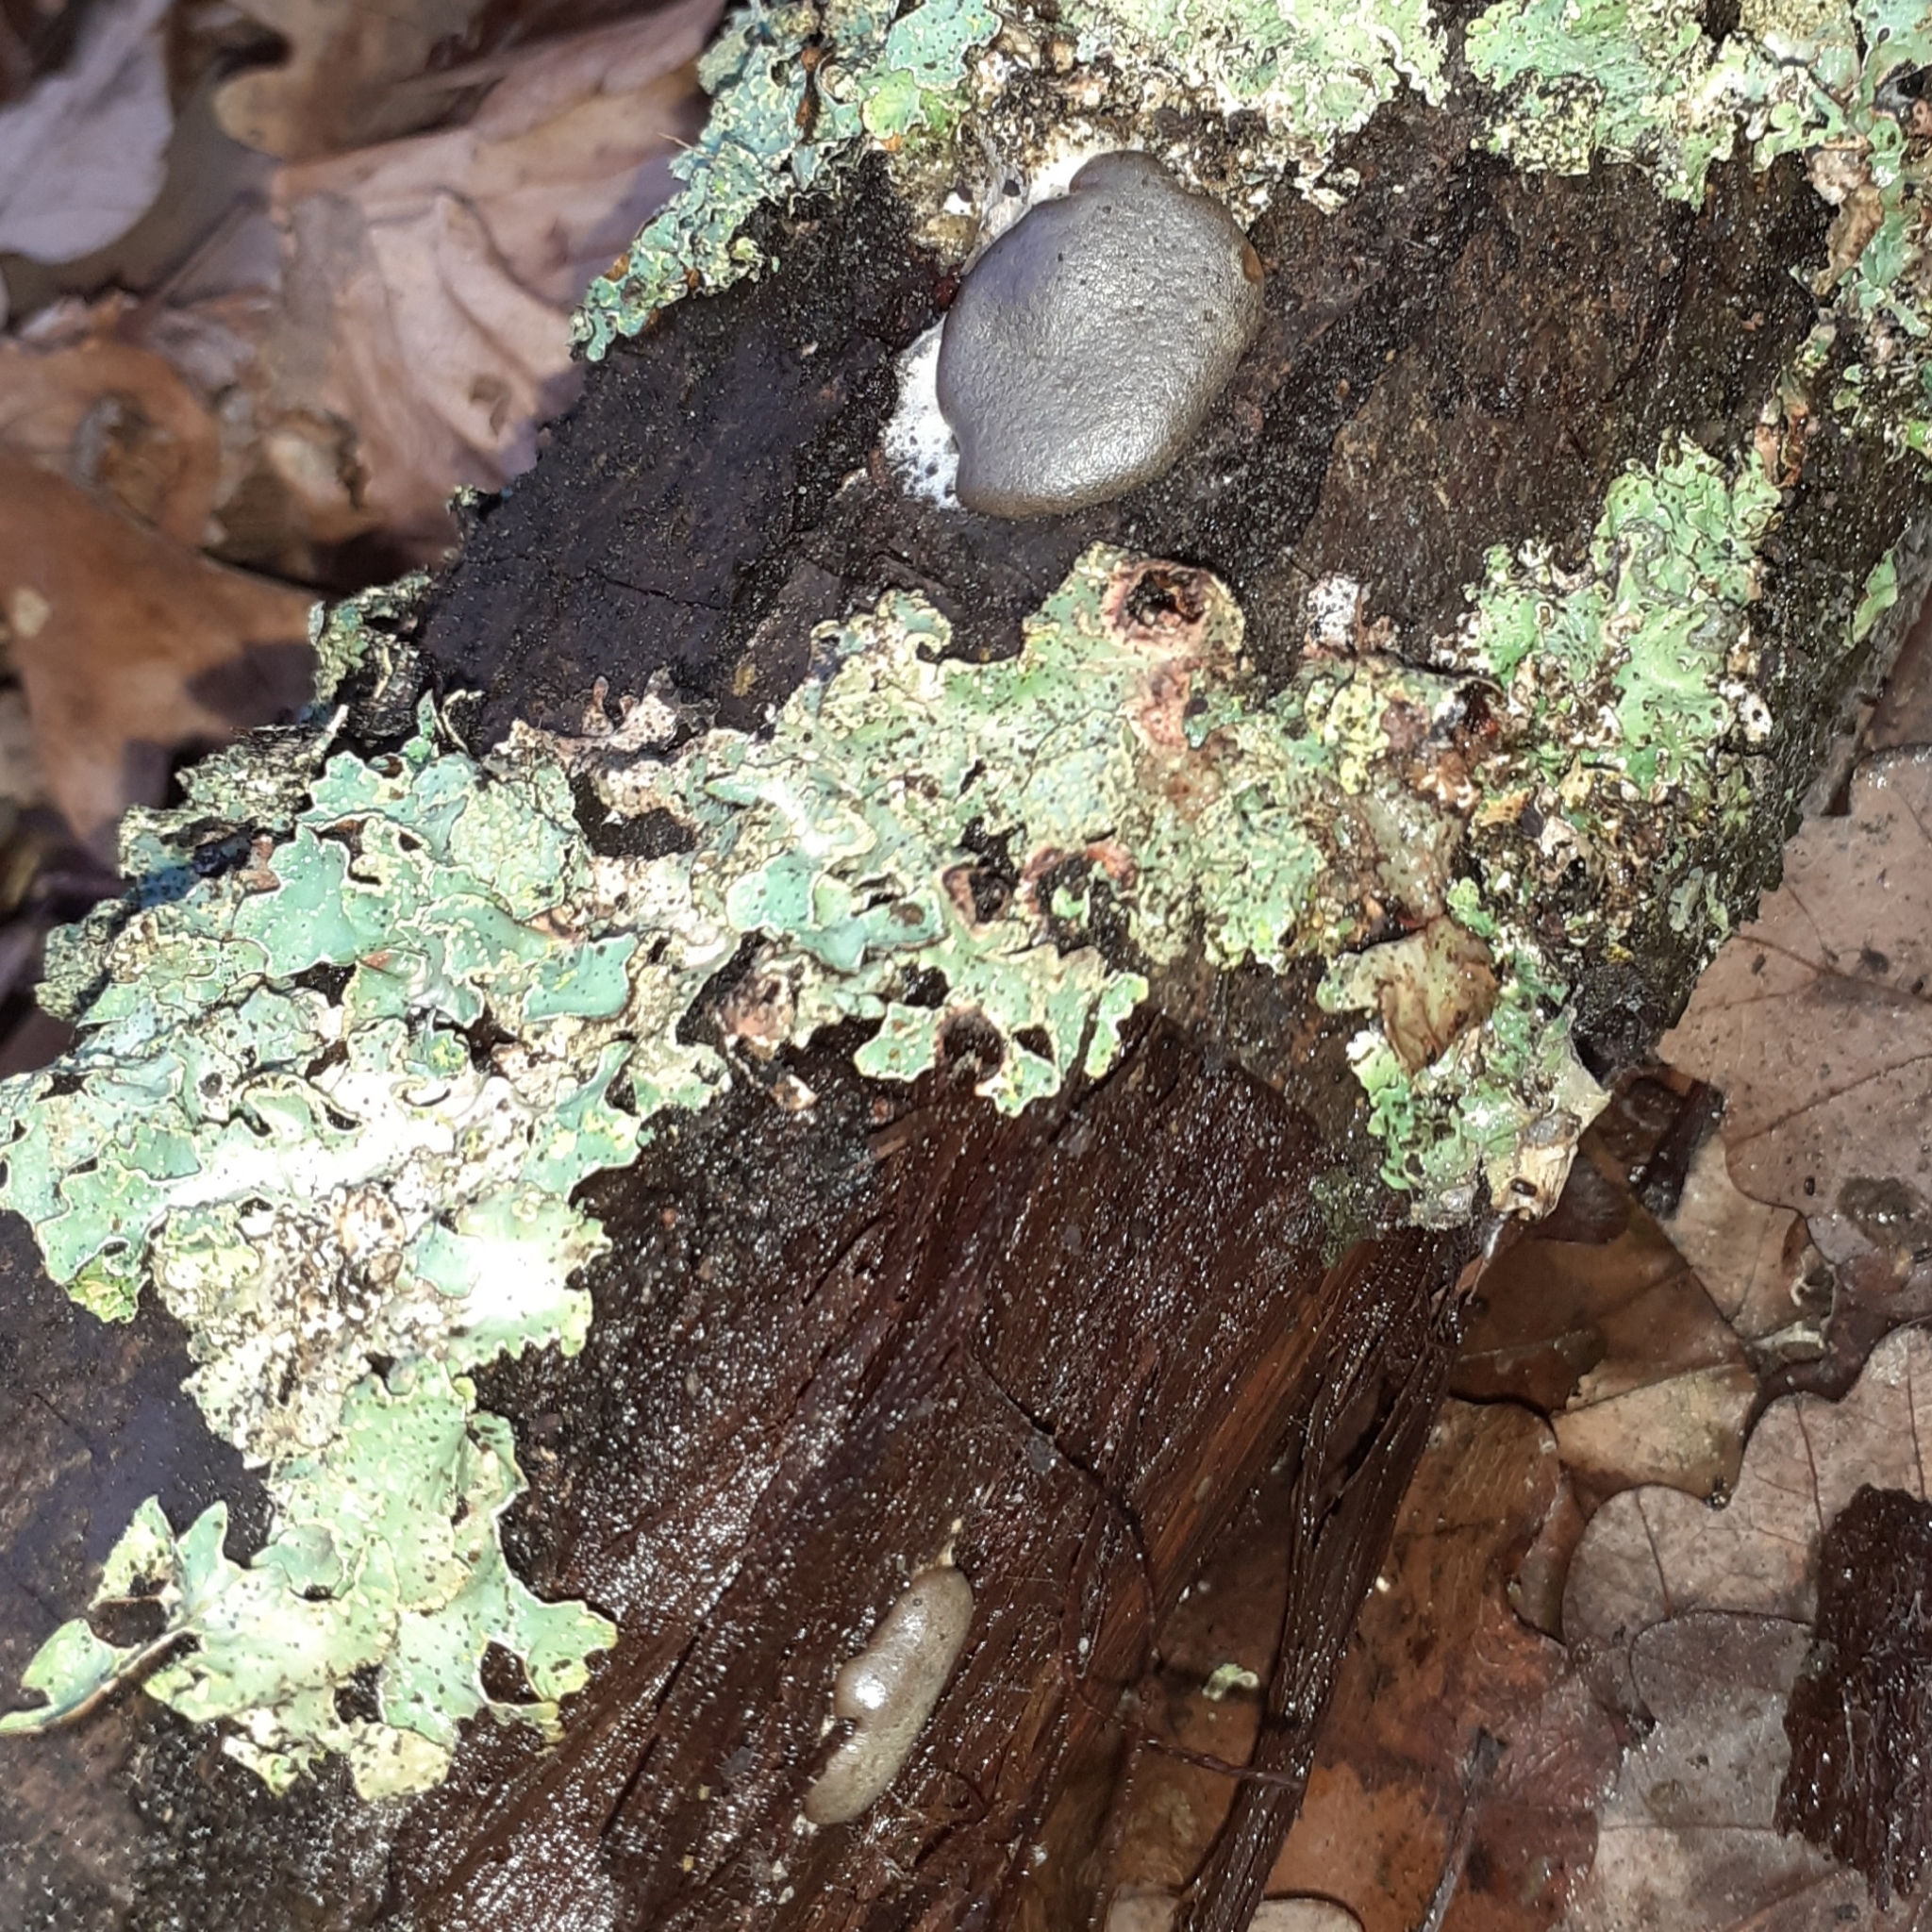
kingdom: Protozoa
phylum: Mycetozoa
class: Myxomycetes
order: Trichiales
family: Dictydiaethaliaceae
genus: Dictydiaethalium
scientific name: Dictydiaethalium plumbeum
